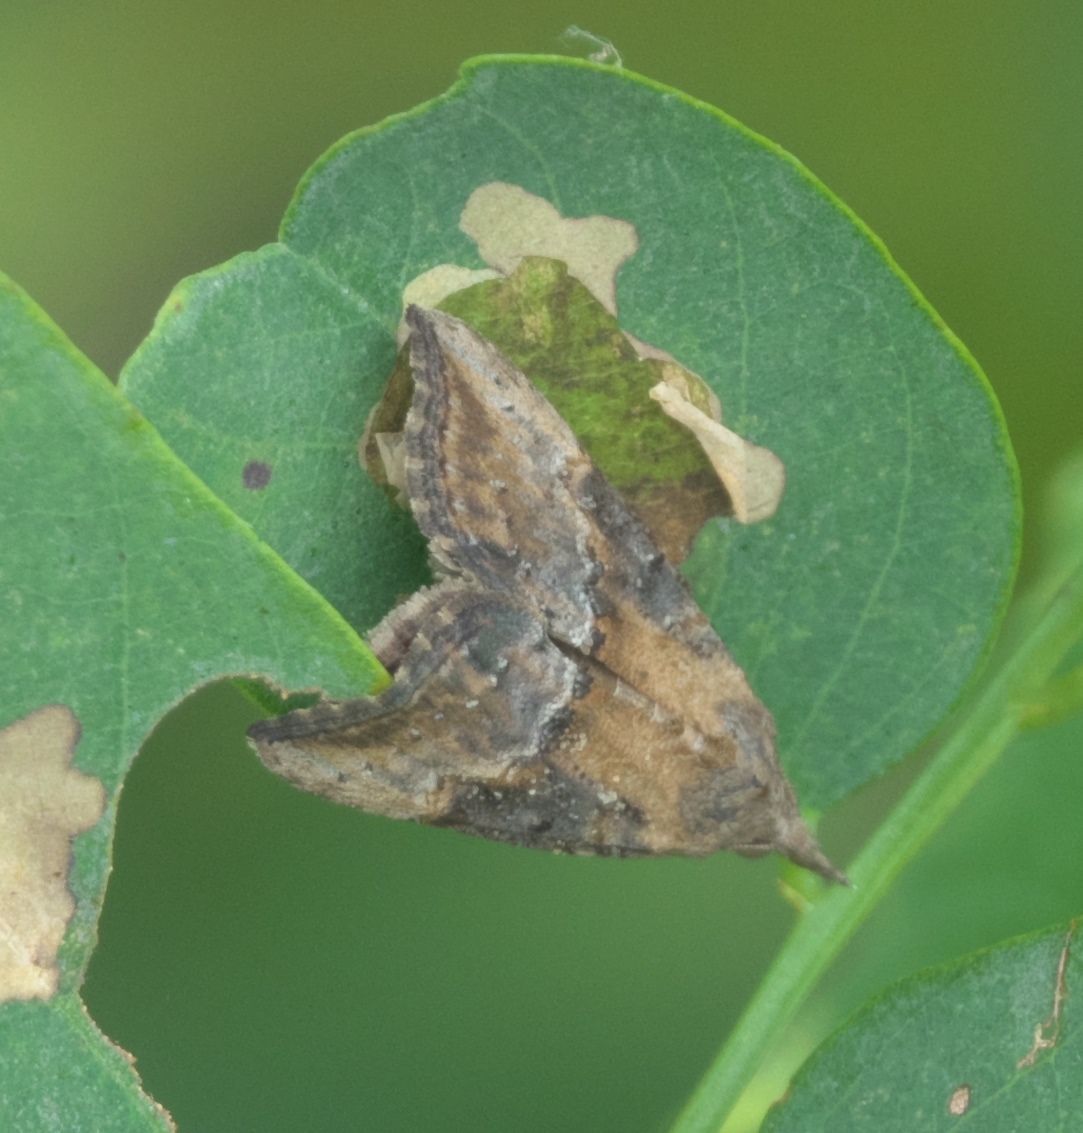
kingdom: Animalia
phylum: Arthropoda
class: Insecta
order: Lepidoptera
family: Erebidae
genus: Hypena
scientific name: Hypena scabra
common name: Green cloverworm
